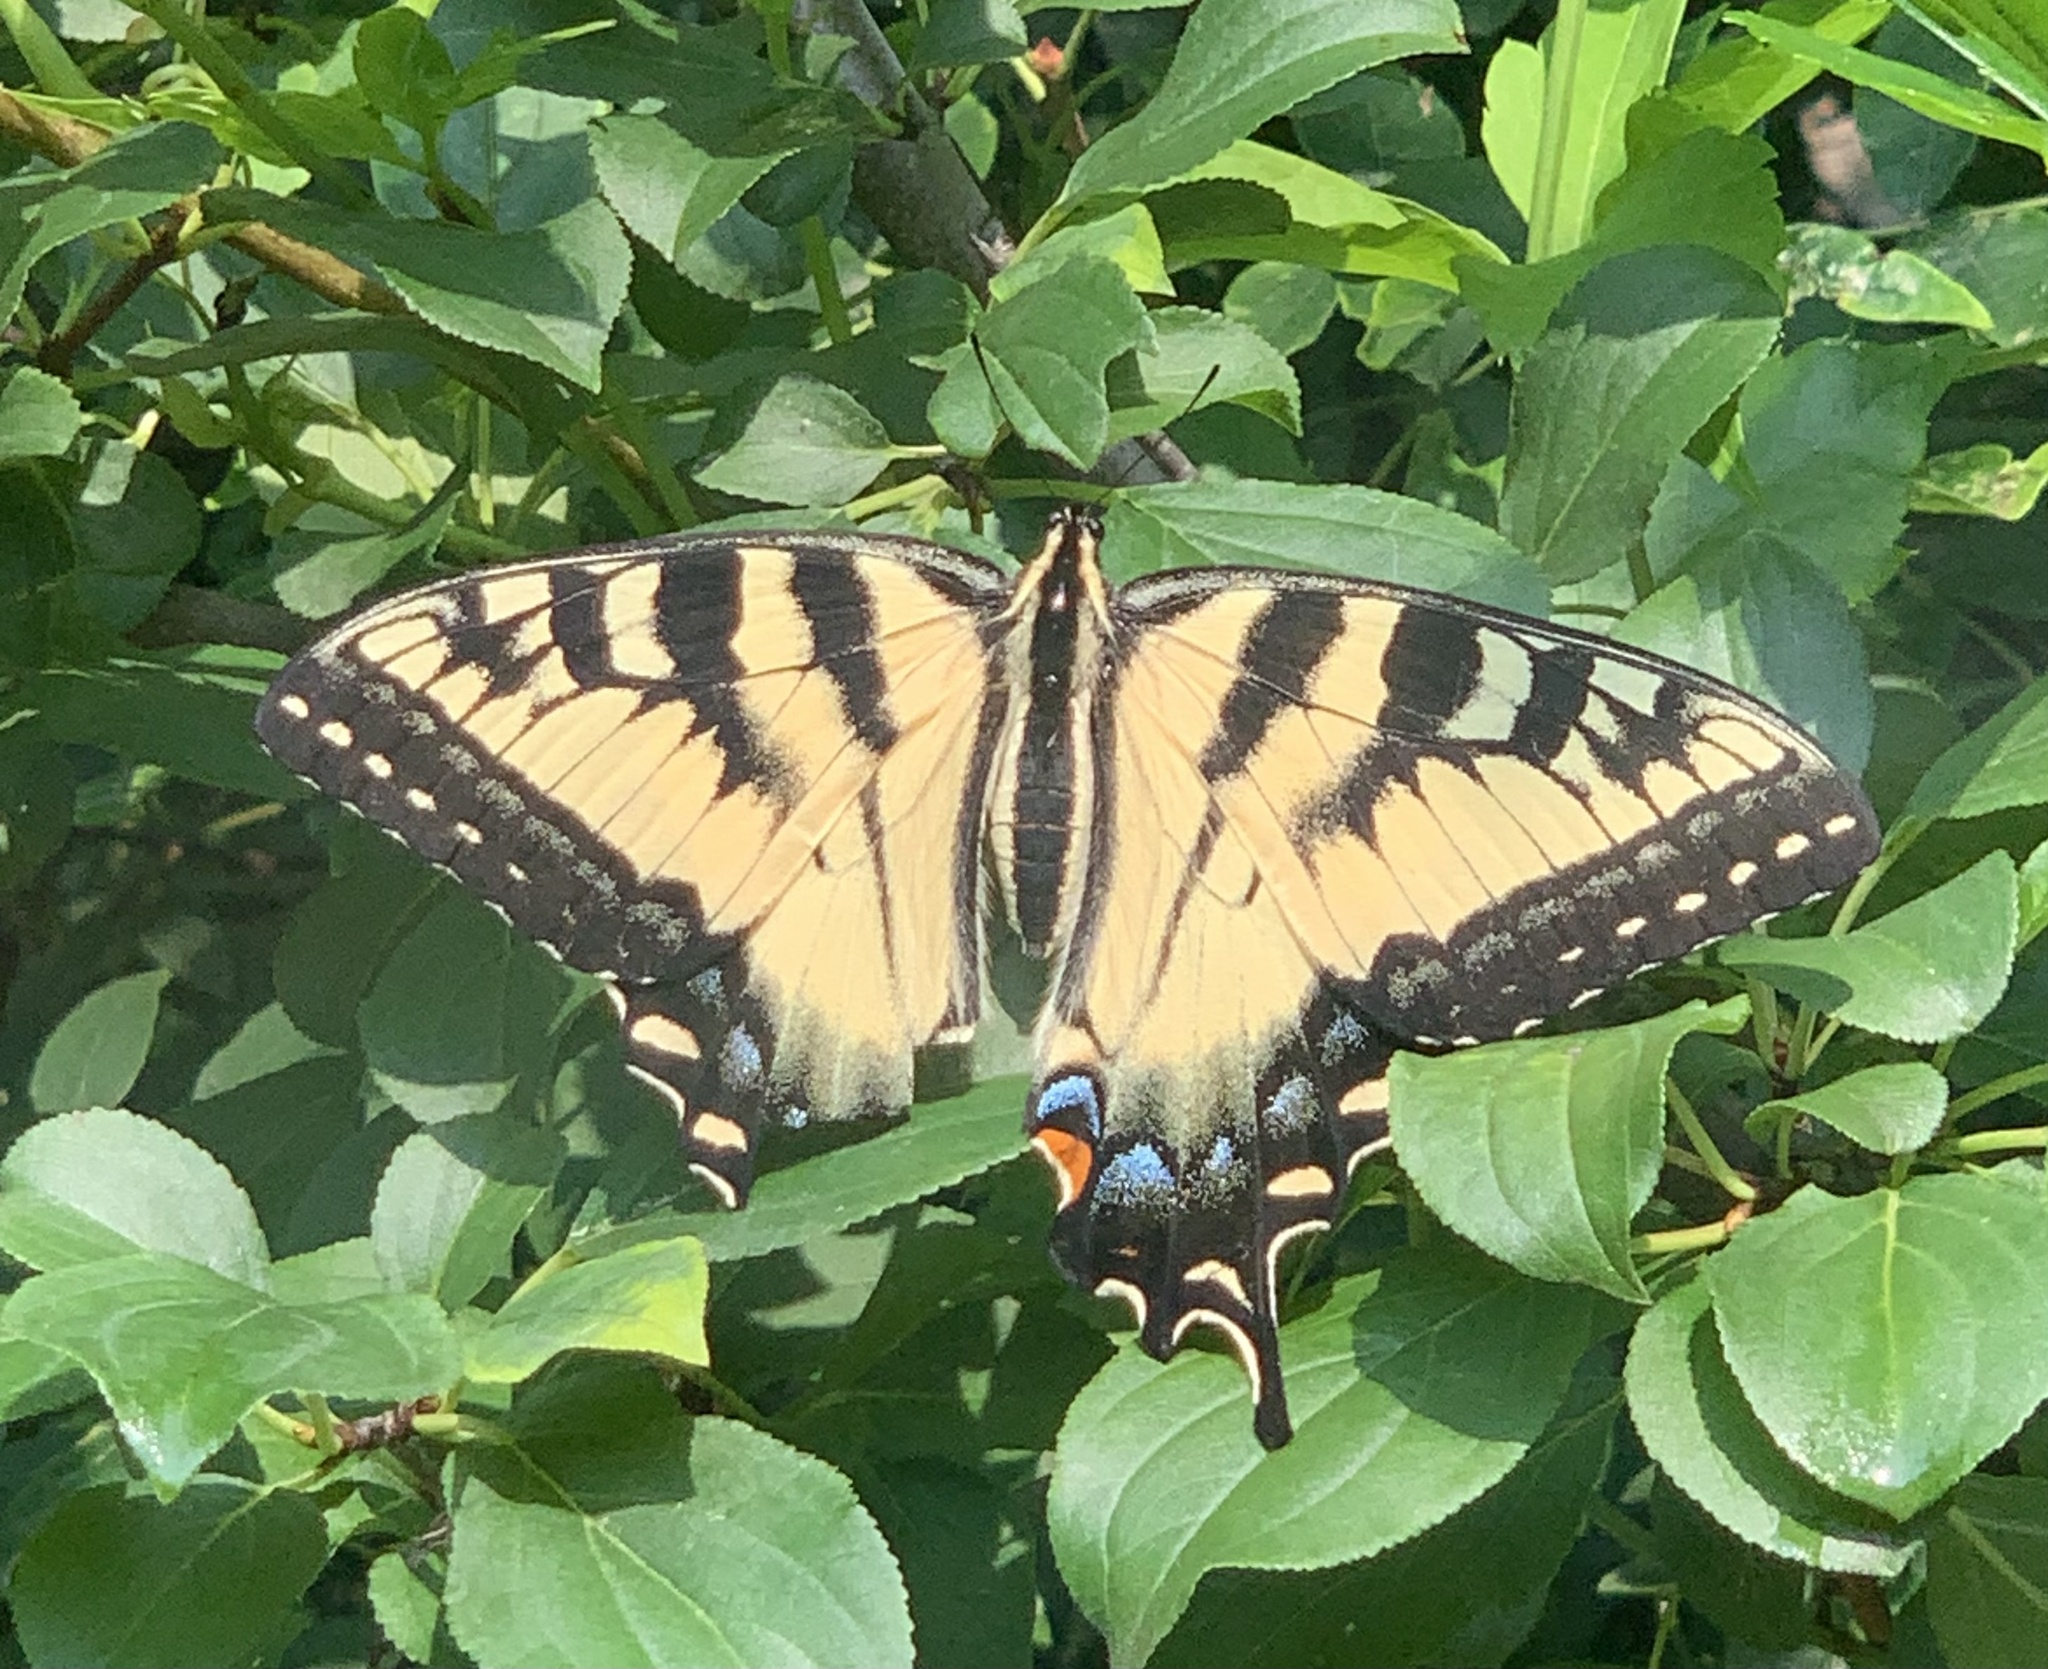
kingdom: Animalia
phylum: Arthropoda
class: Insecta
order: Lepidoptera
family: Papilionidae
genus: Papilio
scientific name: Papilio
